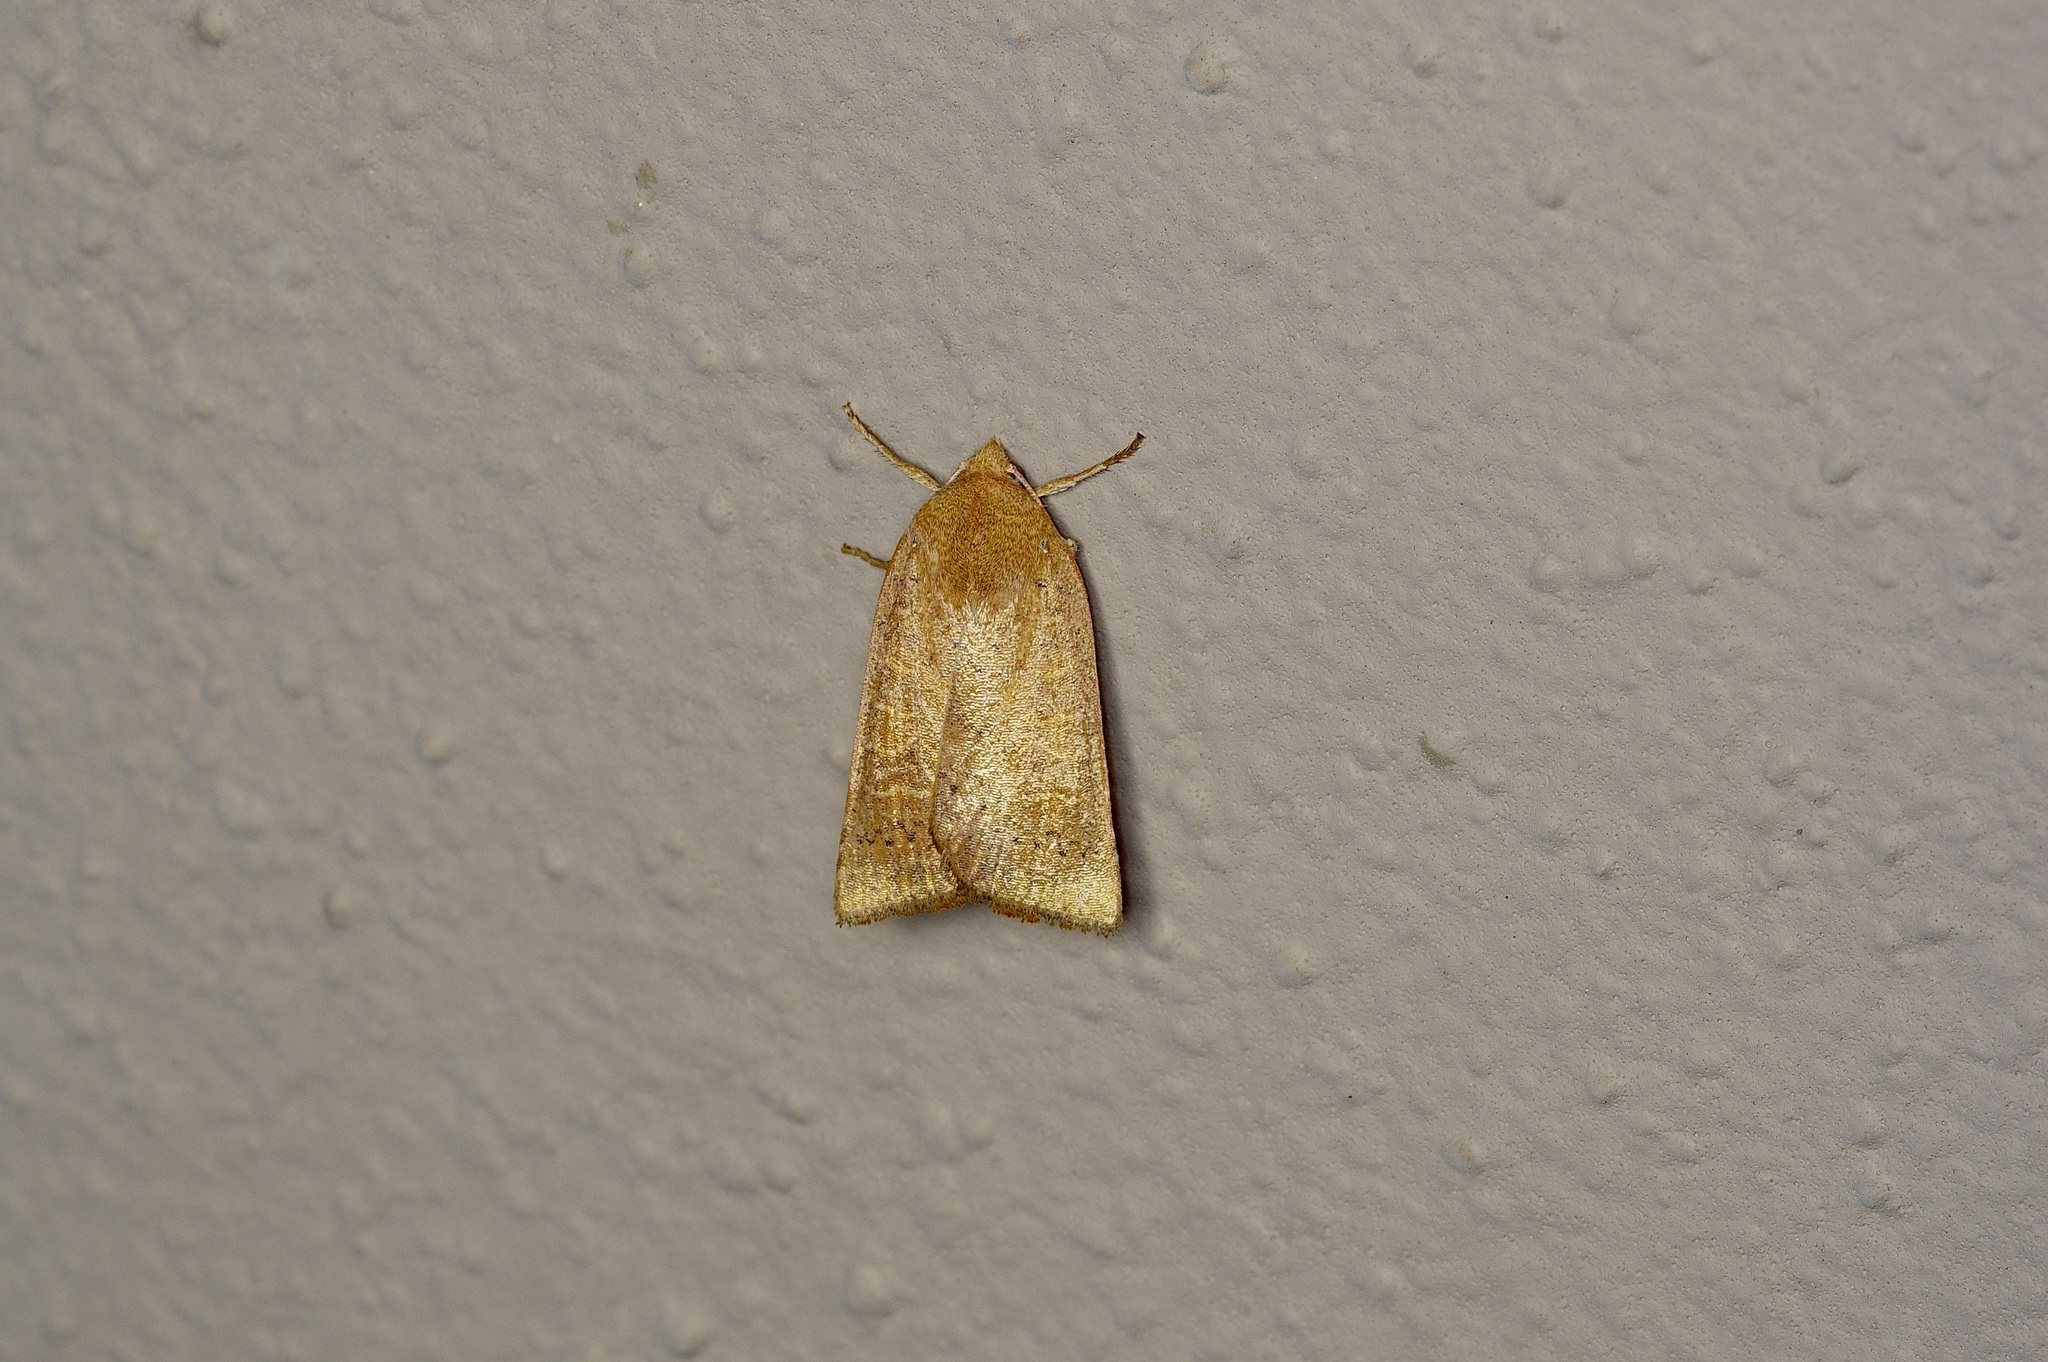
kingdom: Animalia
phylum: Arthropoda
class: Insecta
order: Lepidoptera
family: Noctuidae
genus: Xystopeplus
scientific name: Xystopeplus rufago
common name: Red-winged sallow
